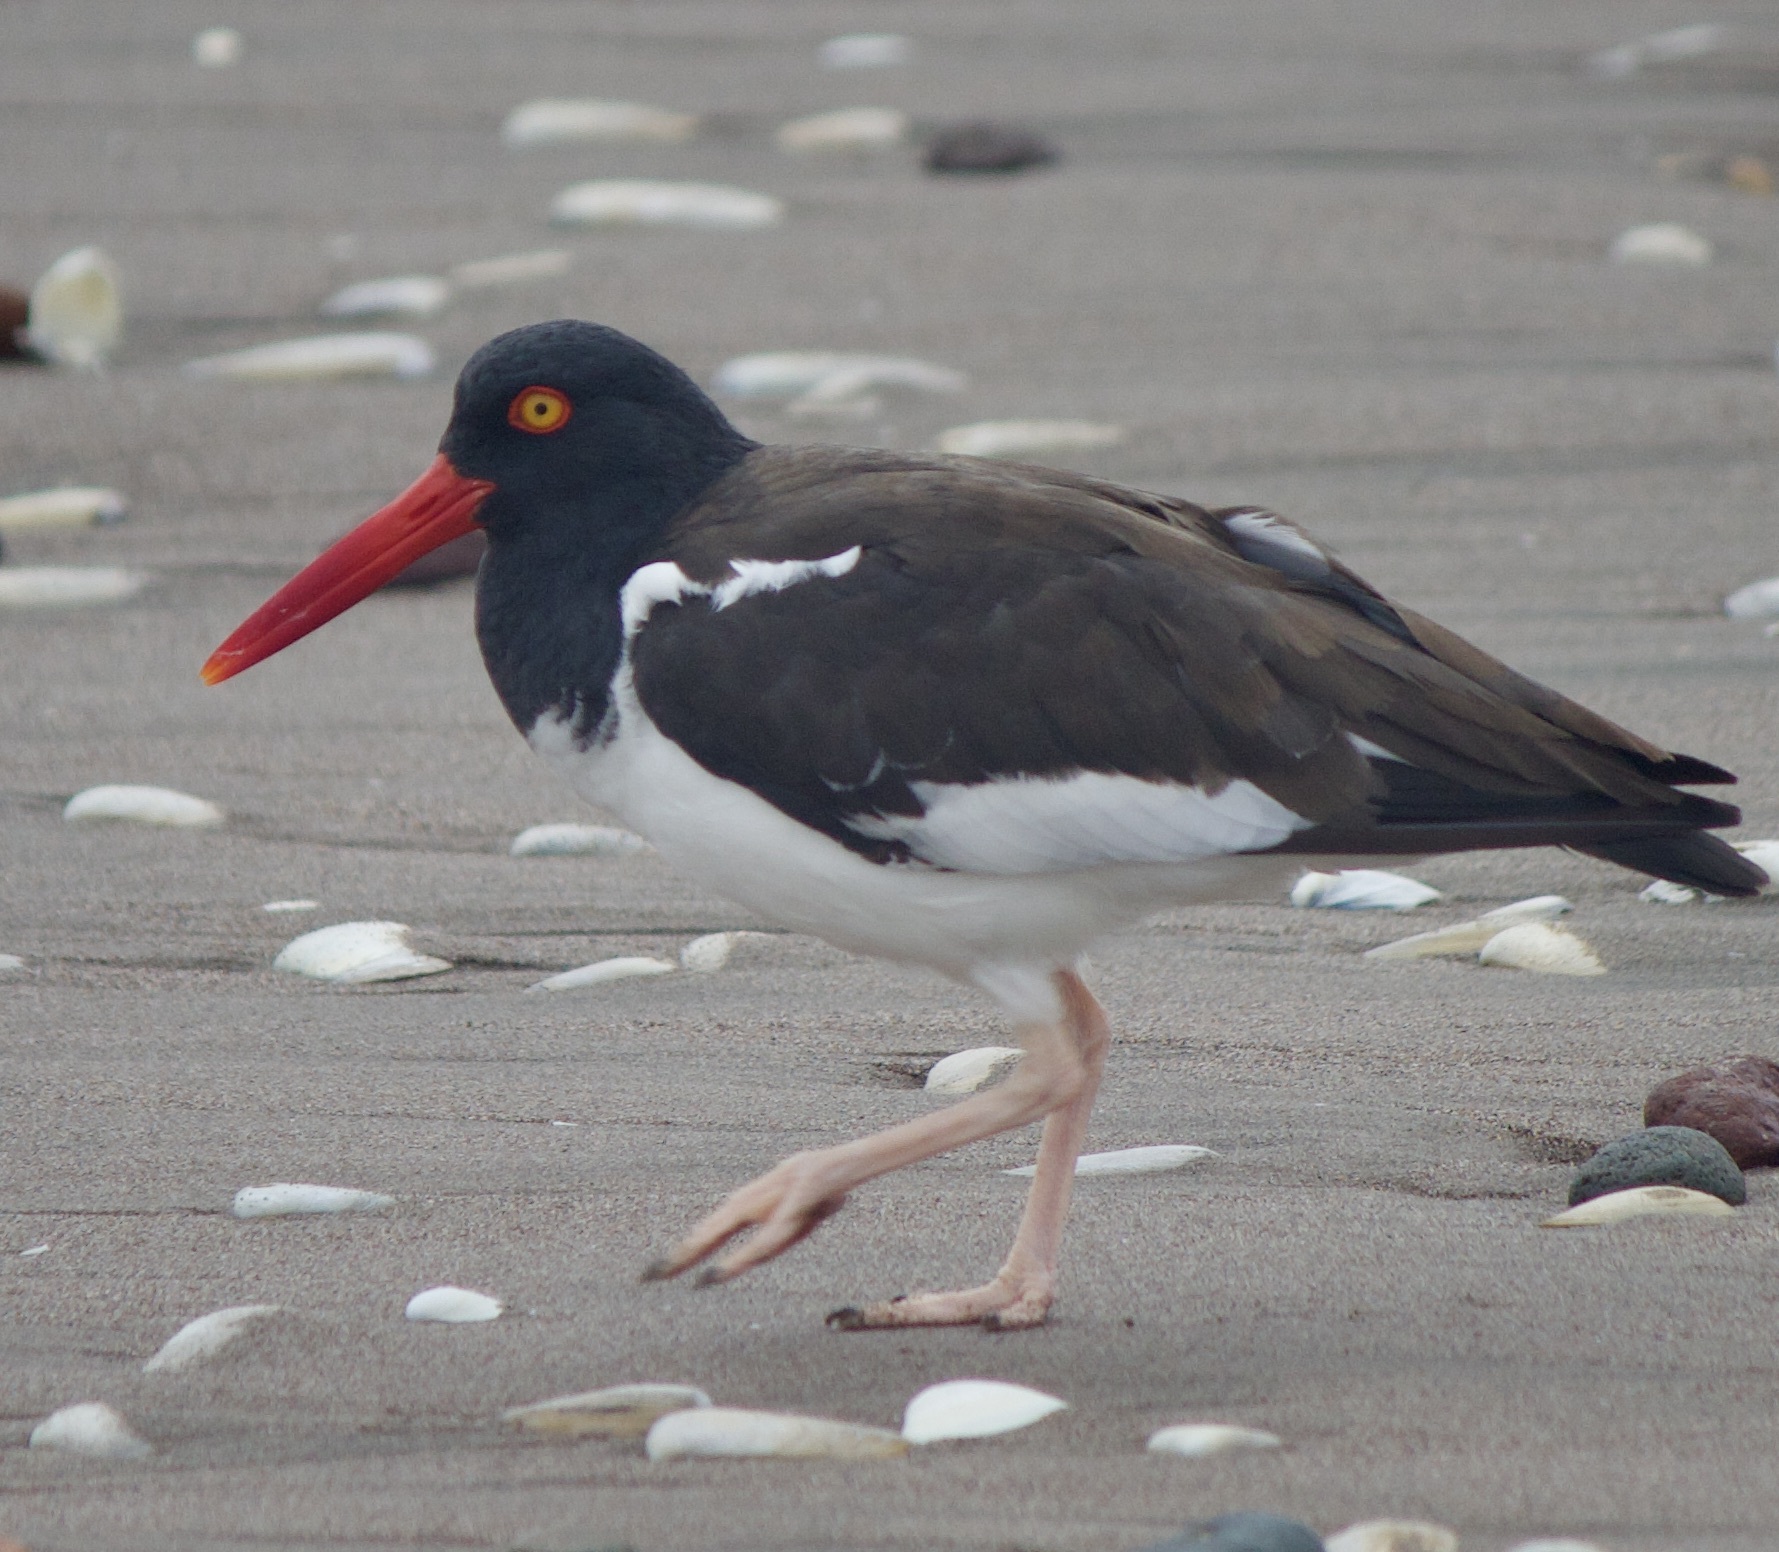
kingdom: Animalia
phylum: Chordata
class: Aves
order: Charadriiformes
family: Haematopodidae
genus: Haematopus
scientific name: Haematopus palliatus
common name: American oystercatcher
